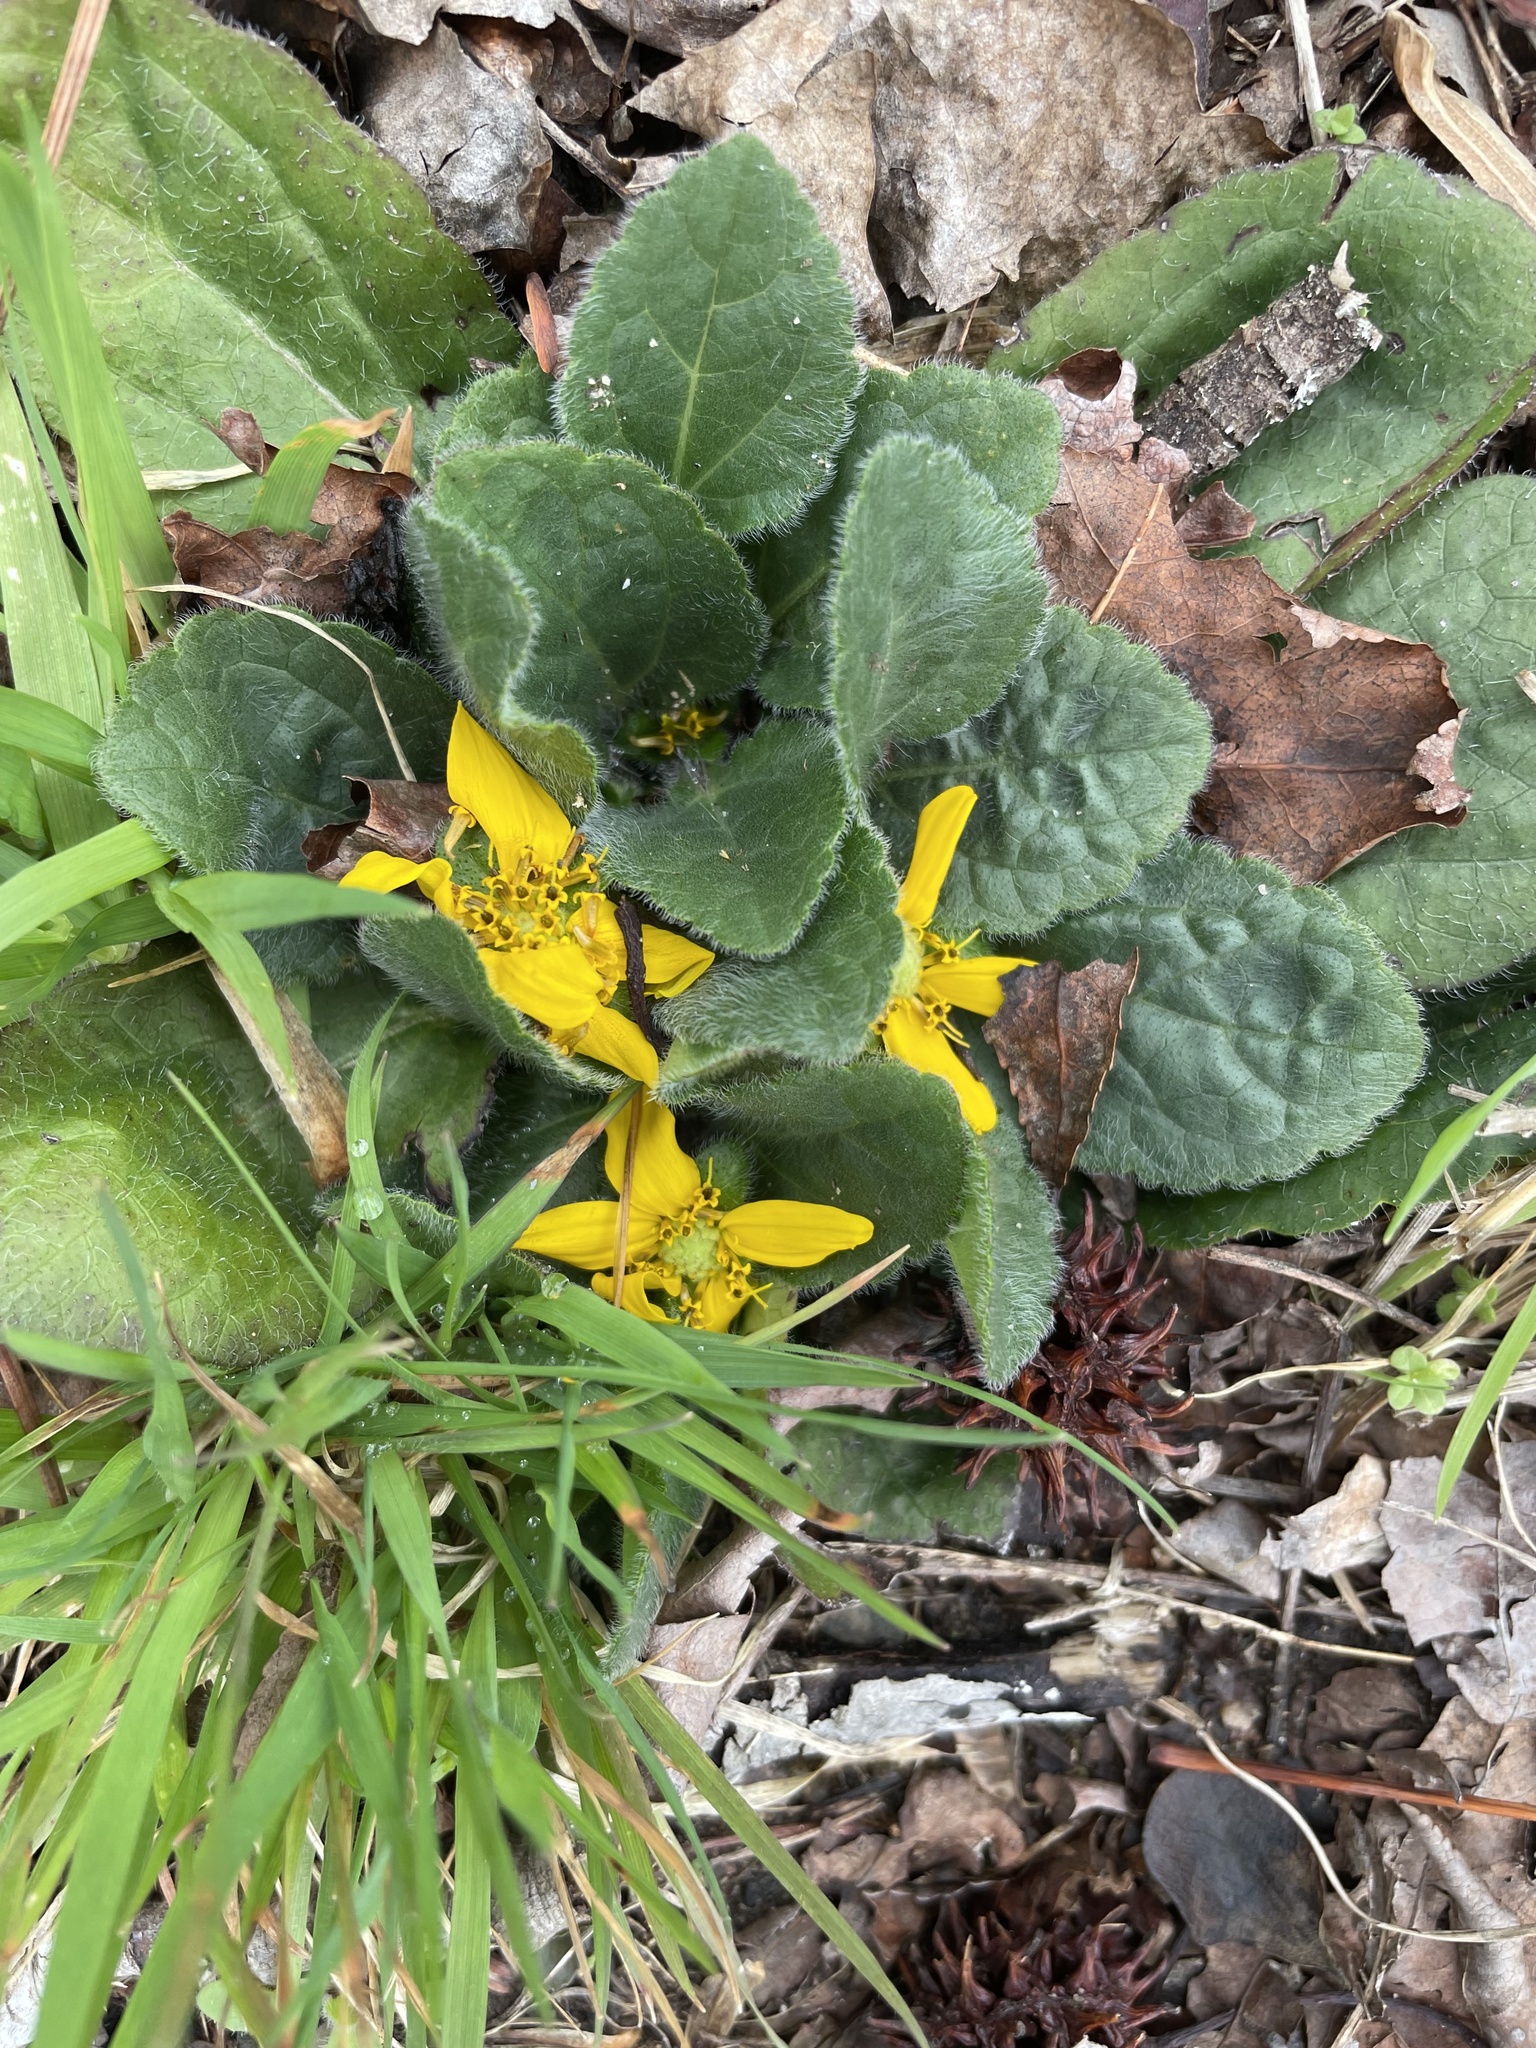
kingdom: Plantae
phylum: Tracheophyta
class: Magnoliopsida
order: Asterales
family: Asteraceae
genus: Chrysogonum
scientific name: Chrysogonum virginianum
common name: Golden-knee
